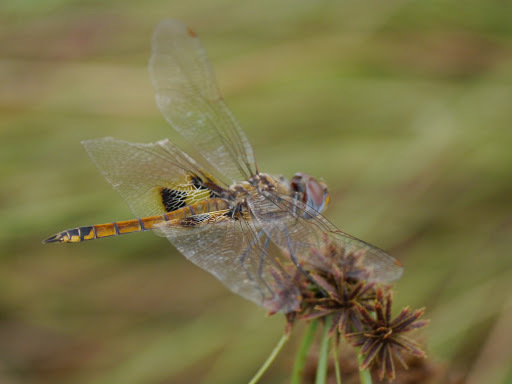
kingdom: Animalia
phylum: Arthropoda
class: Insecta
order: Odonata
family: Libellulidae
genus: Tramea
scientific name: Tramea basilaris
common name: Keyhole glider
